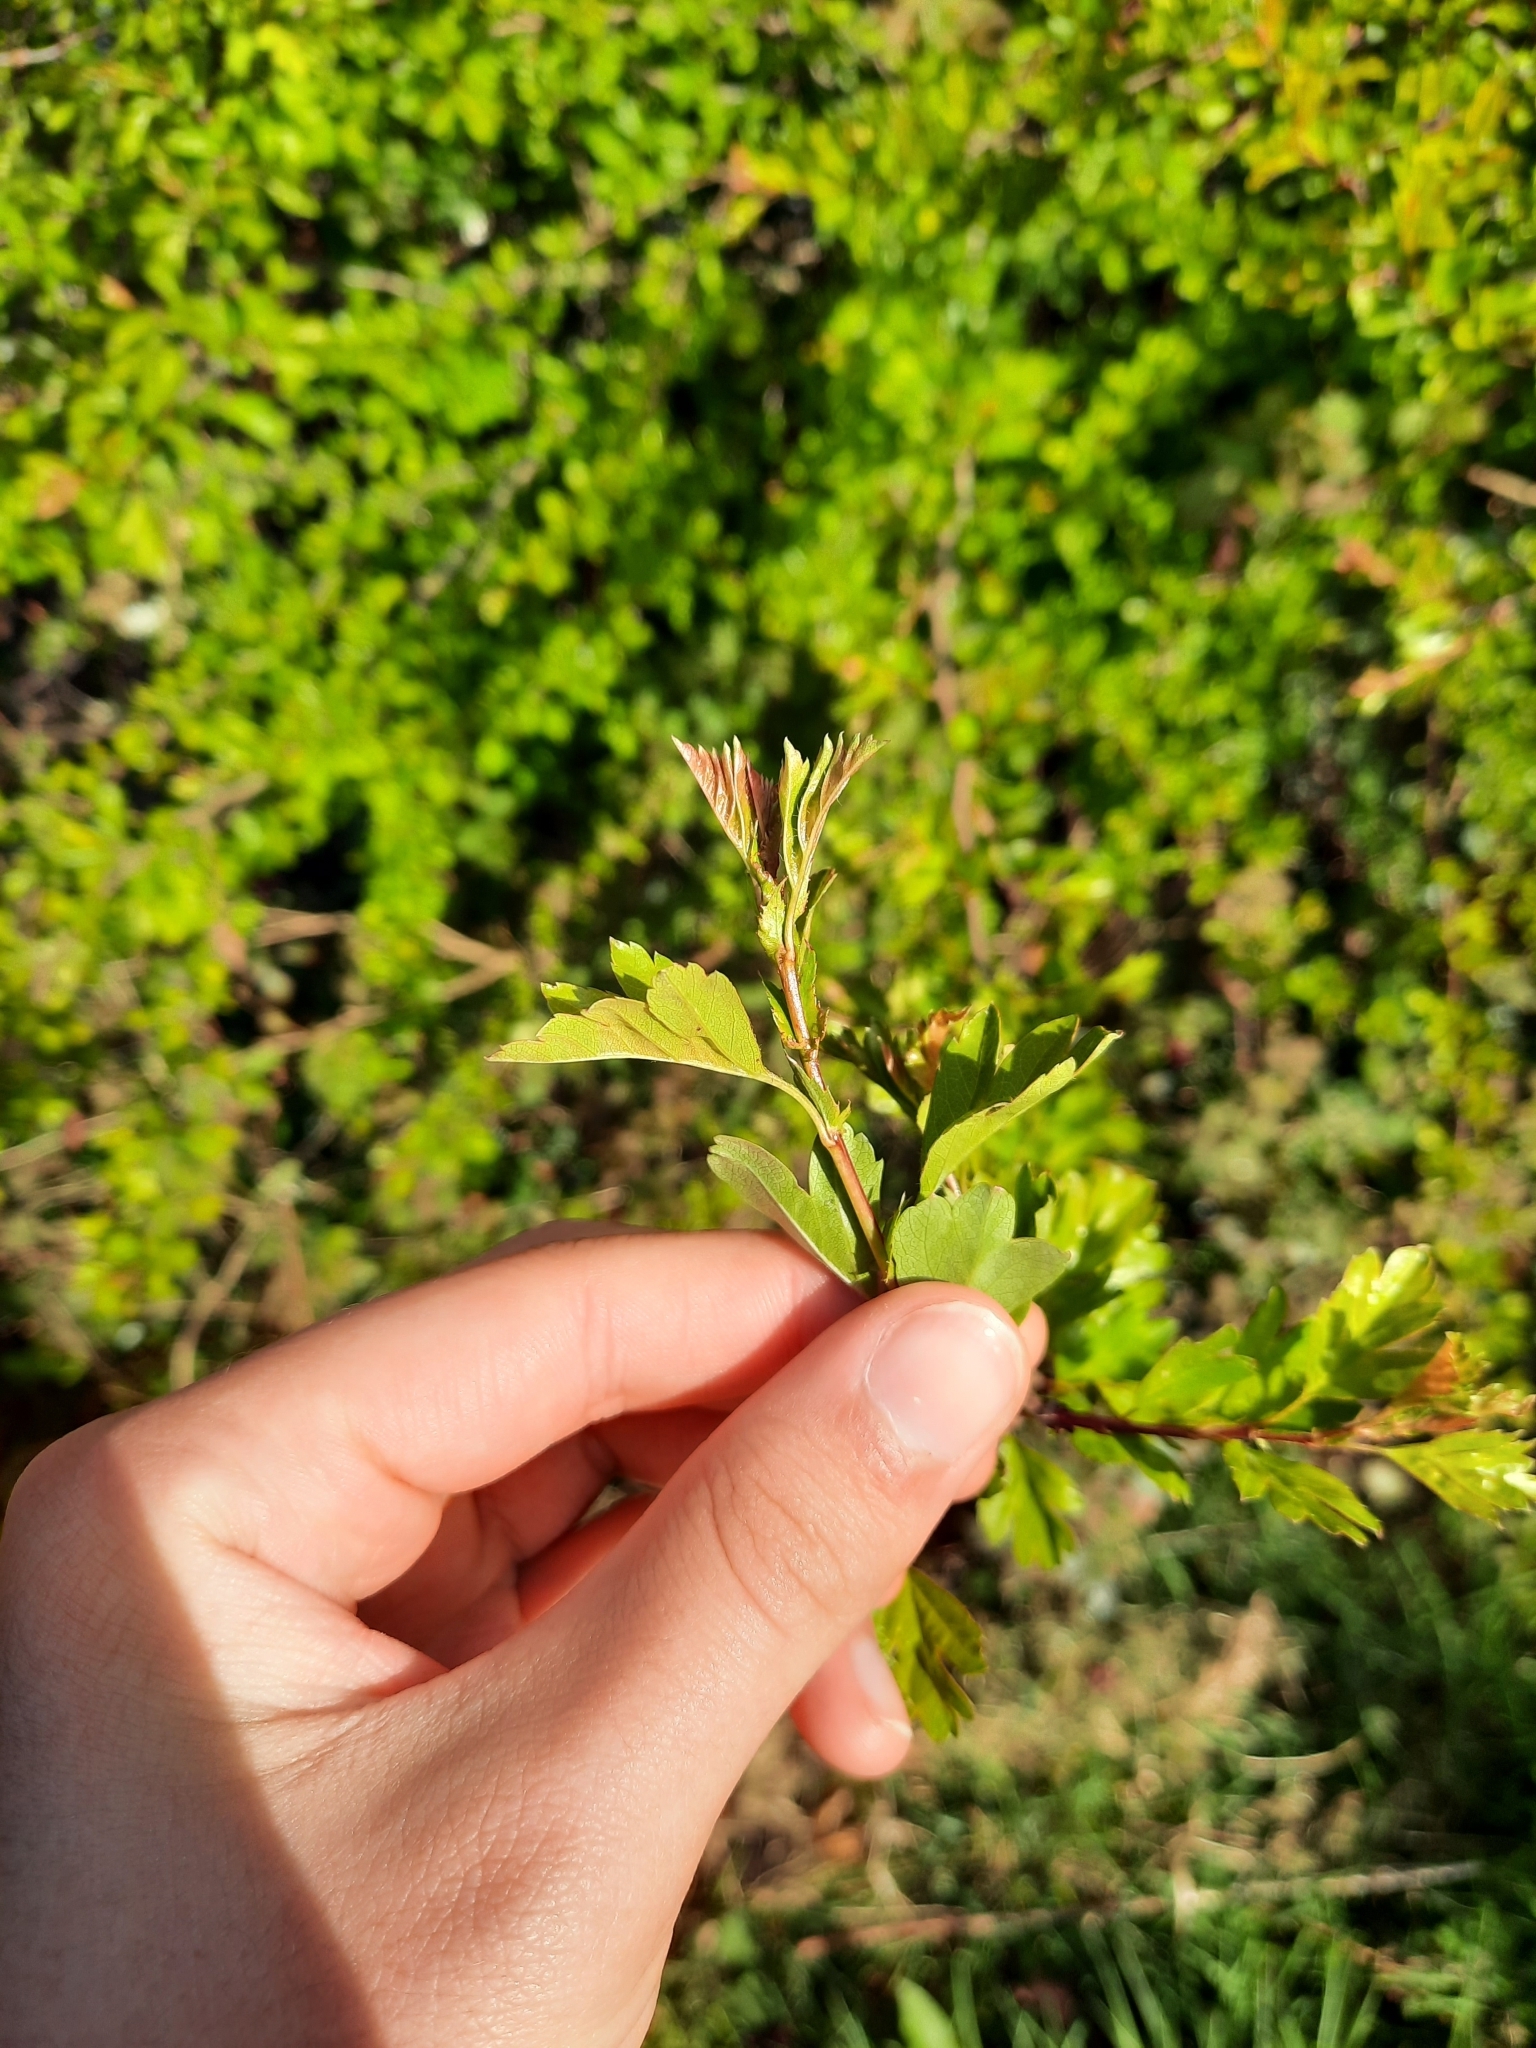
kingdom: Plantae
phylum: Tracheophyta
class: Magnoliopsida
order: Rosales
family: Rosaceae
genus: Crataegus
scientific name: Crataegus monogyna
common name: Hawthorn
